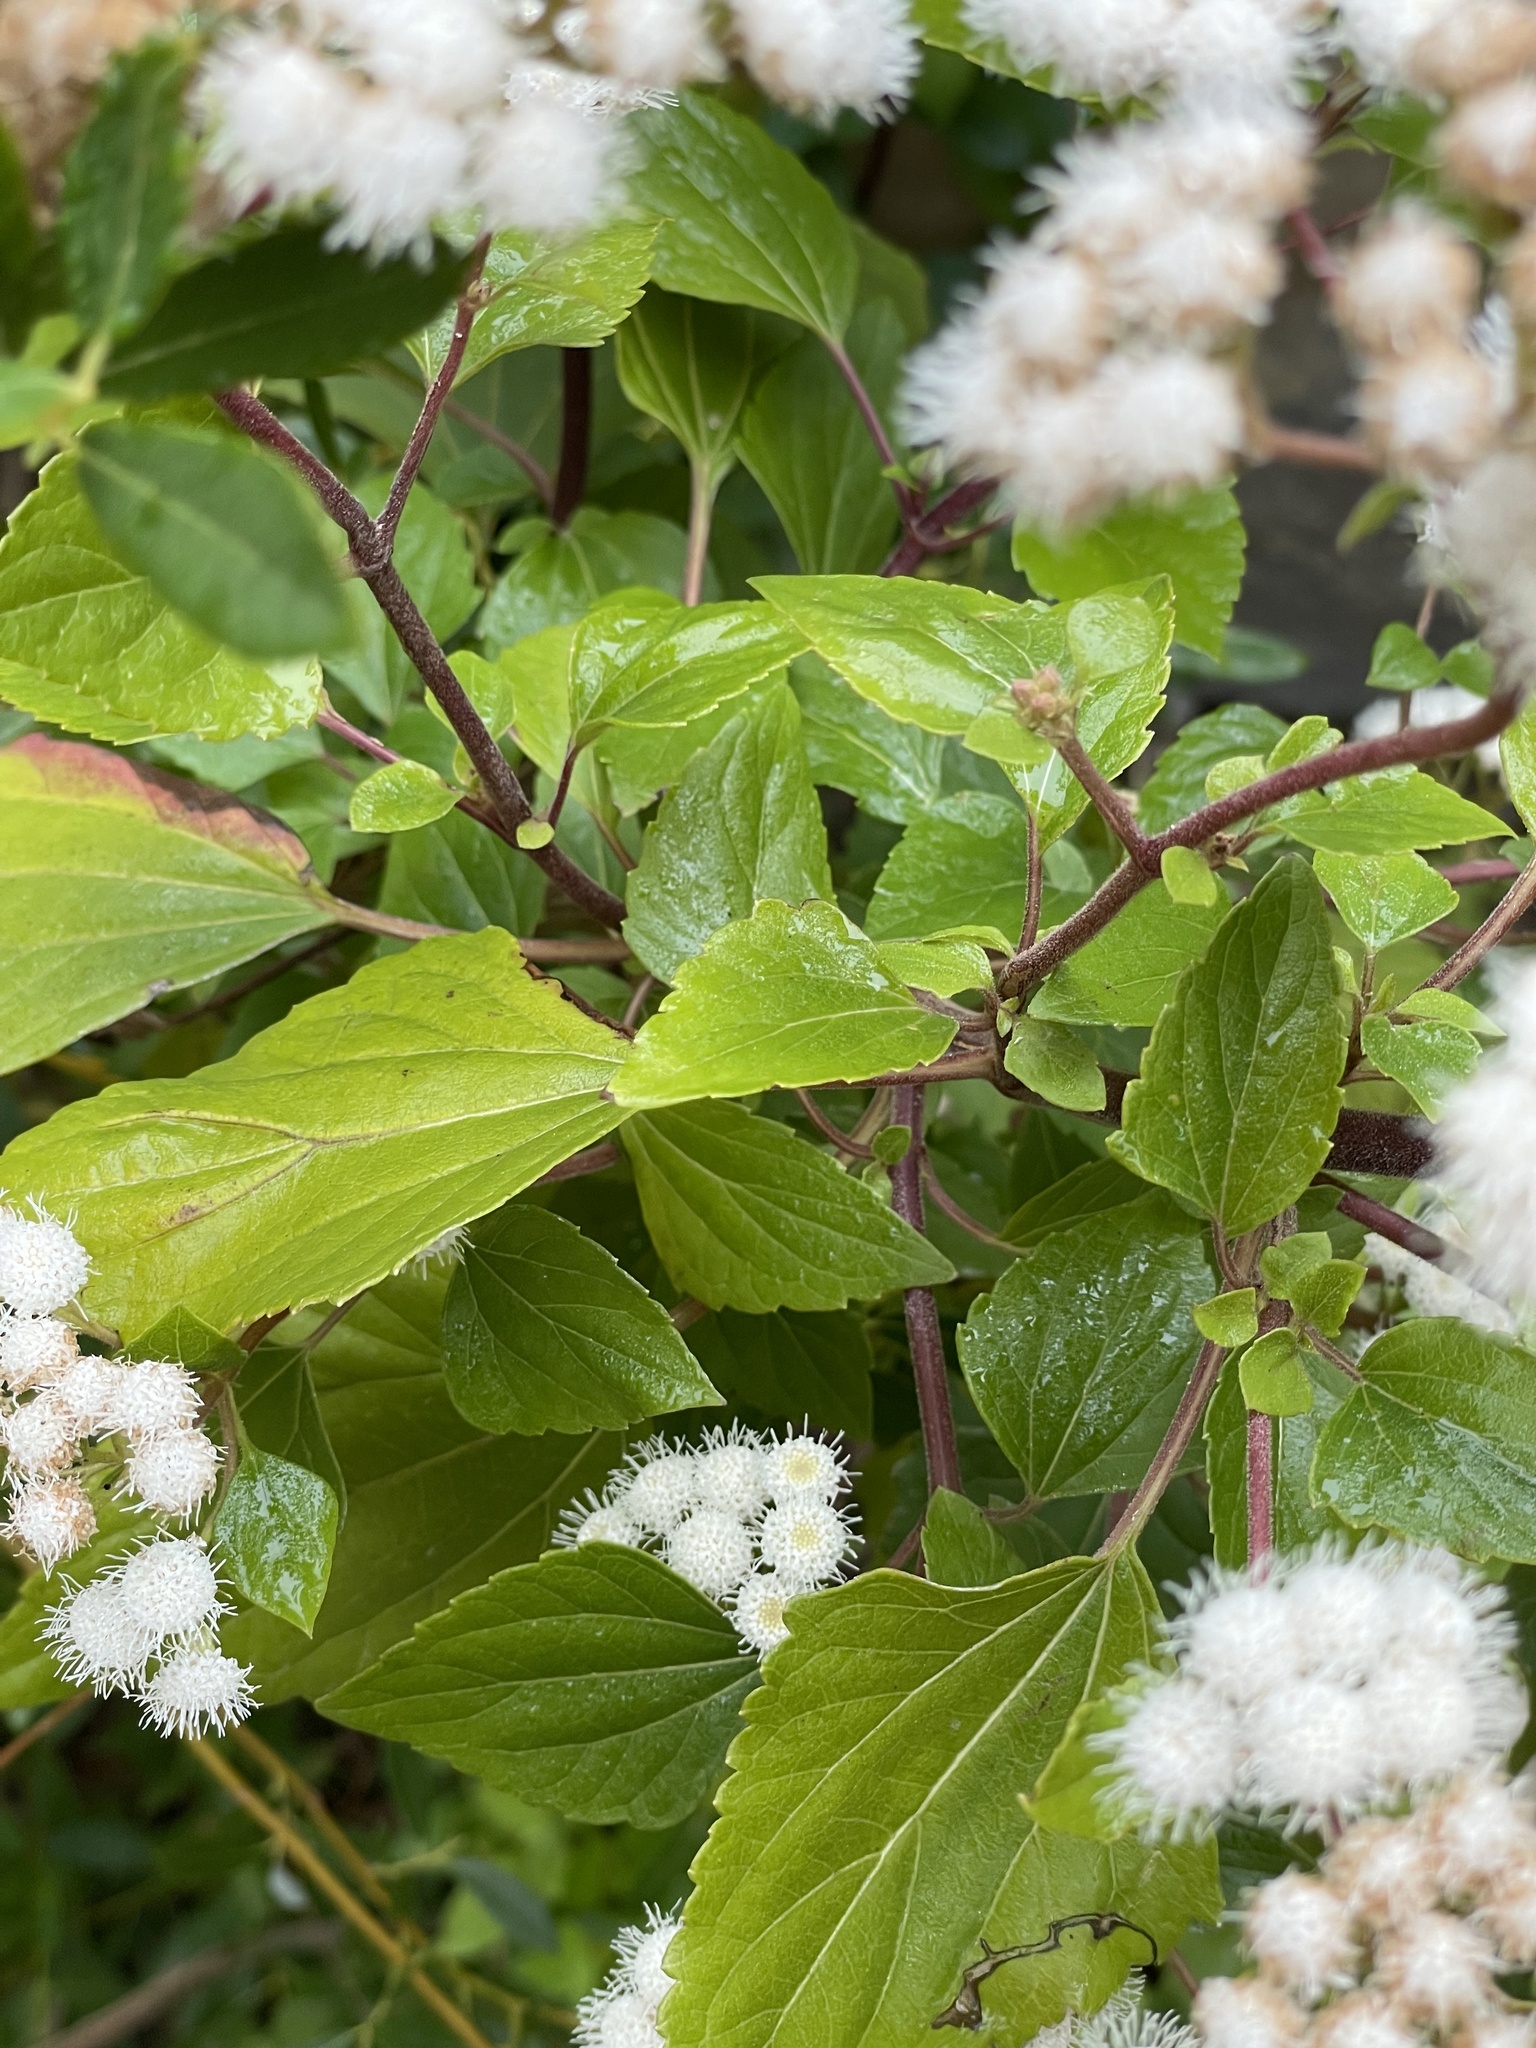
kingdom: Plantae
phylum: Tracheophyta
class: Magnoliopsida
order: Asterales
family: Asteraceae
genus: Ageratina
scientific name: Ageratina adenophora
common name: Sticky snakeroot
